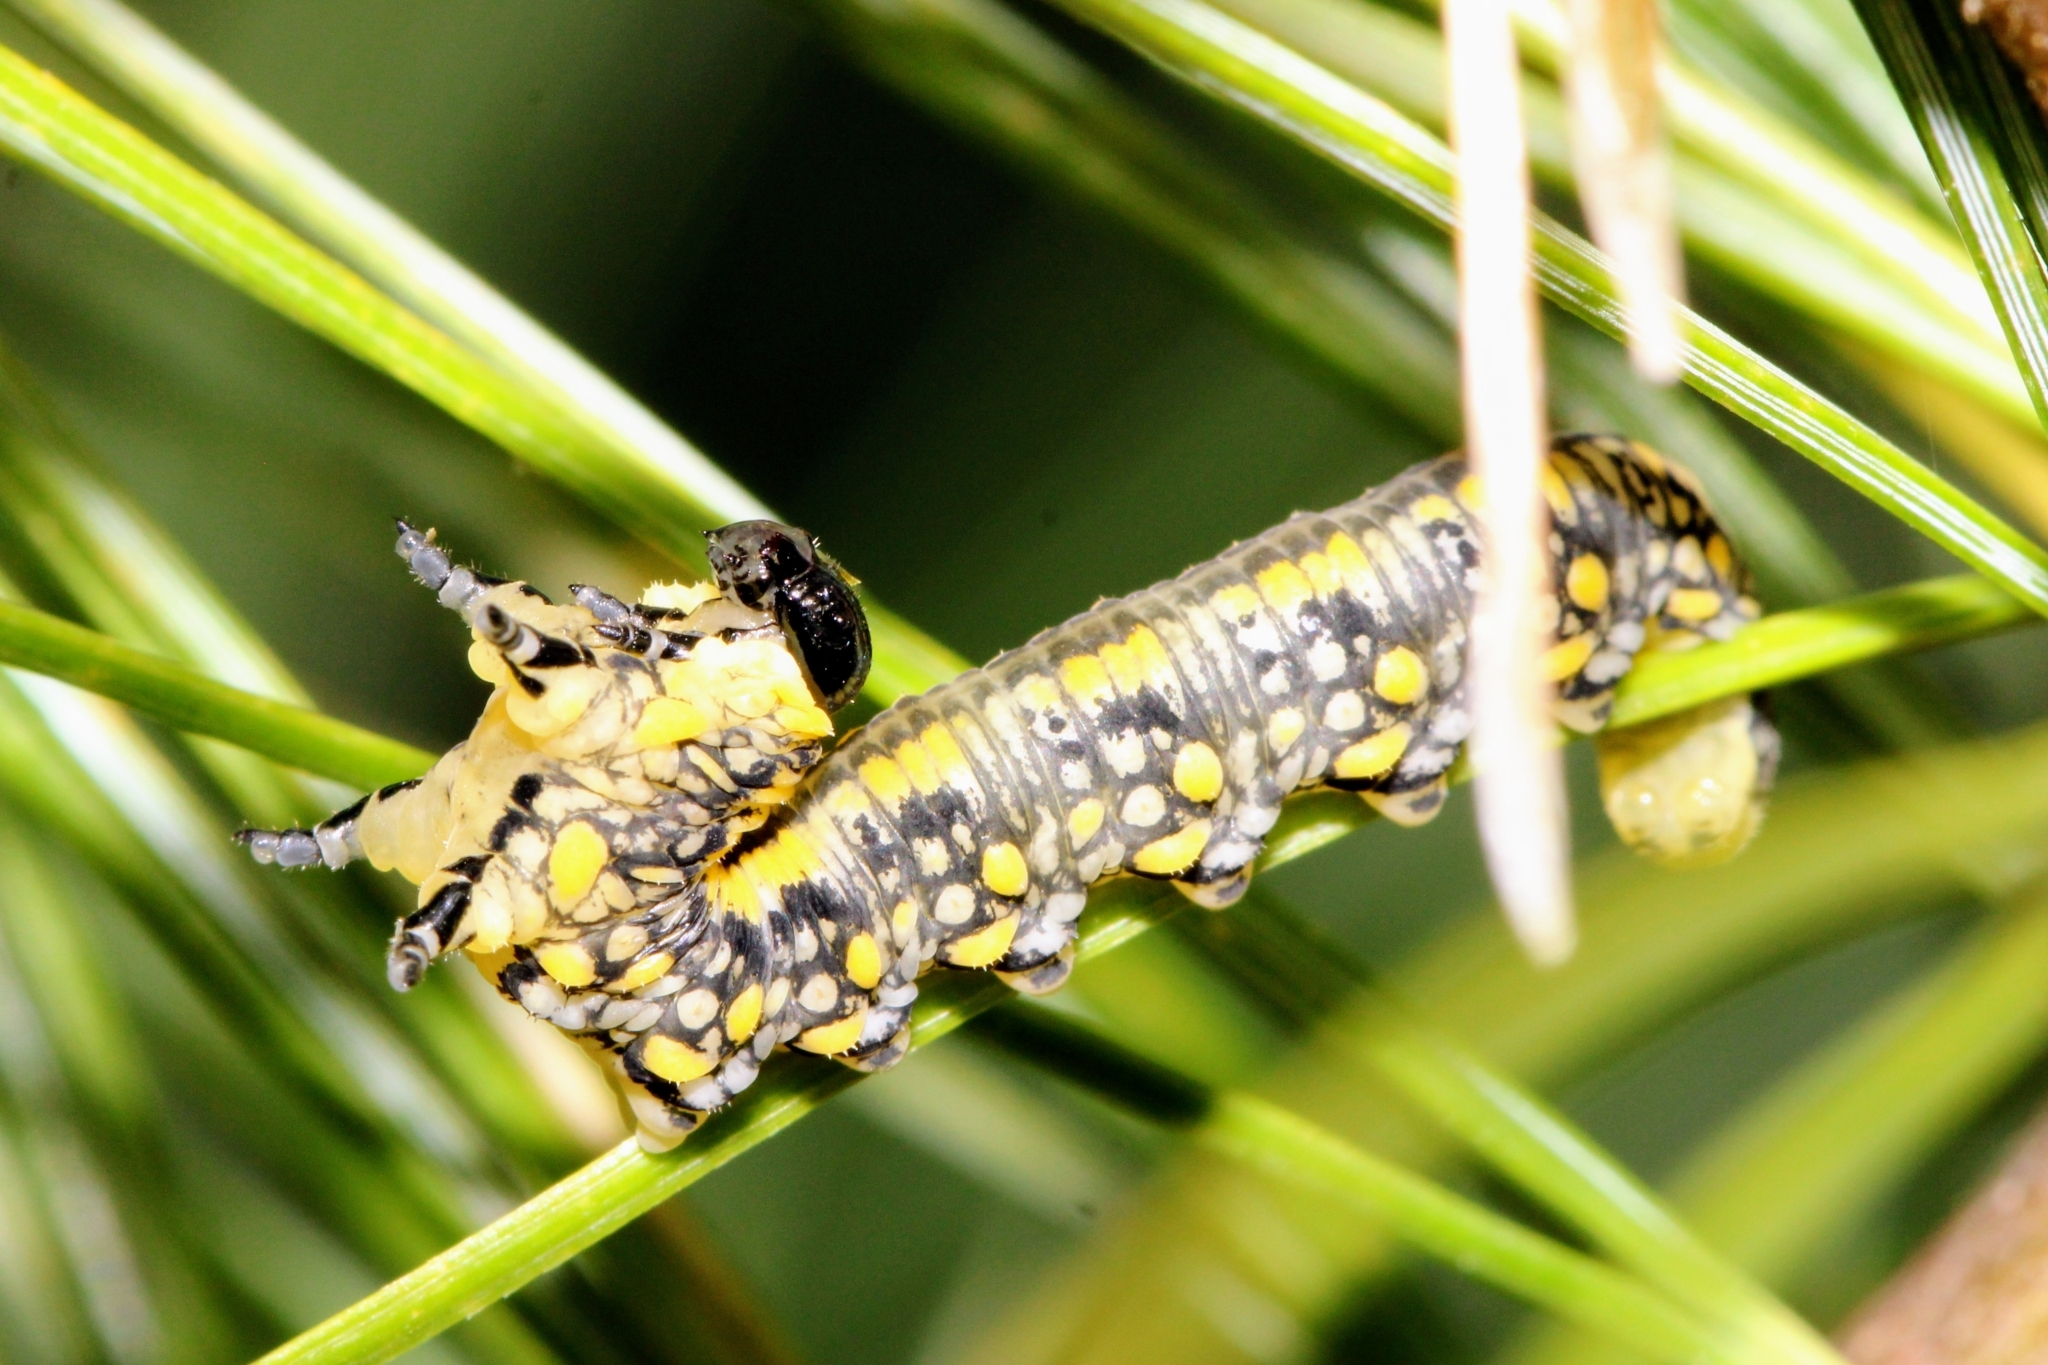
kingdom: Animalia
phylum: Arthropoda
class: Insecta
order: Hymenoptera
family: Diprionidae
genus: Diprion
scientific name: Diprion similis
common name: Pine sawfly
